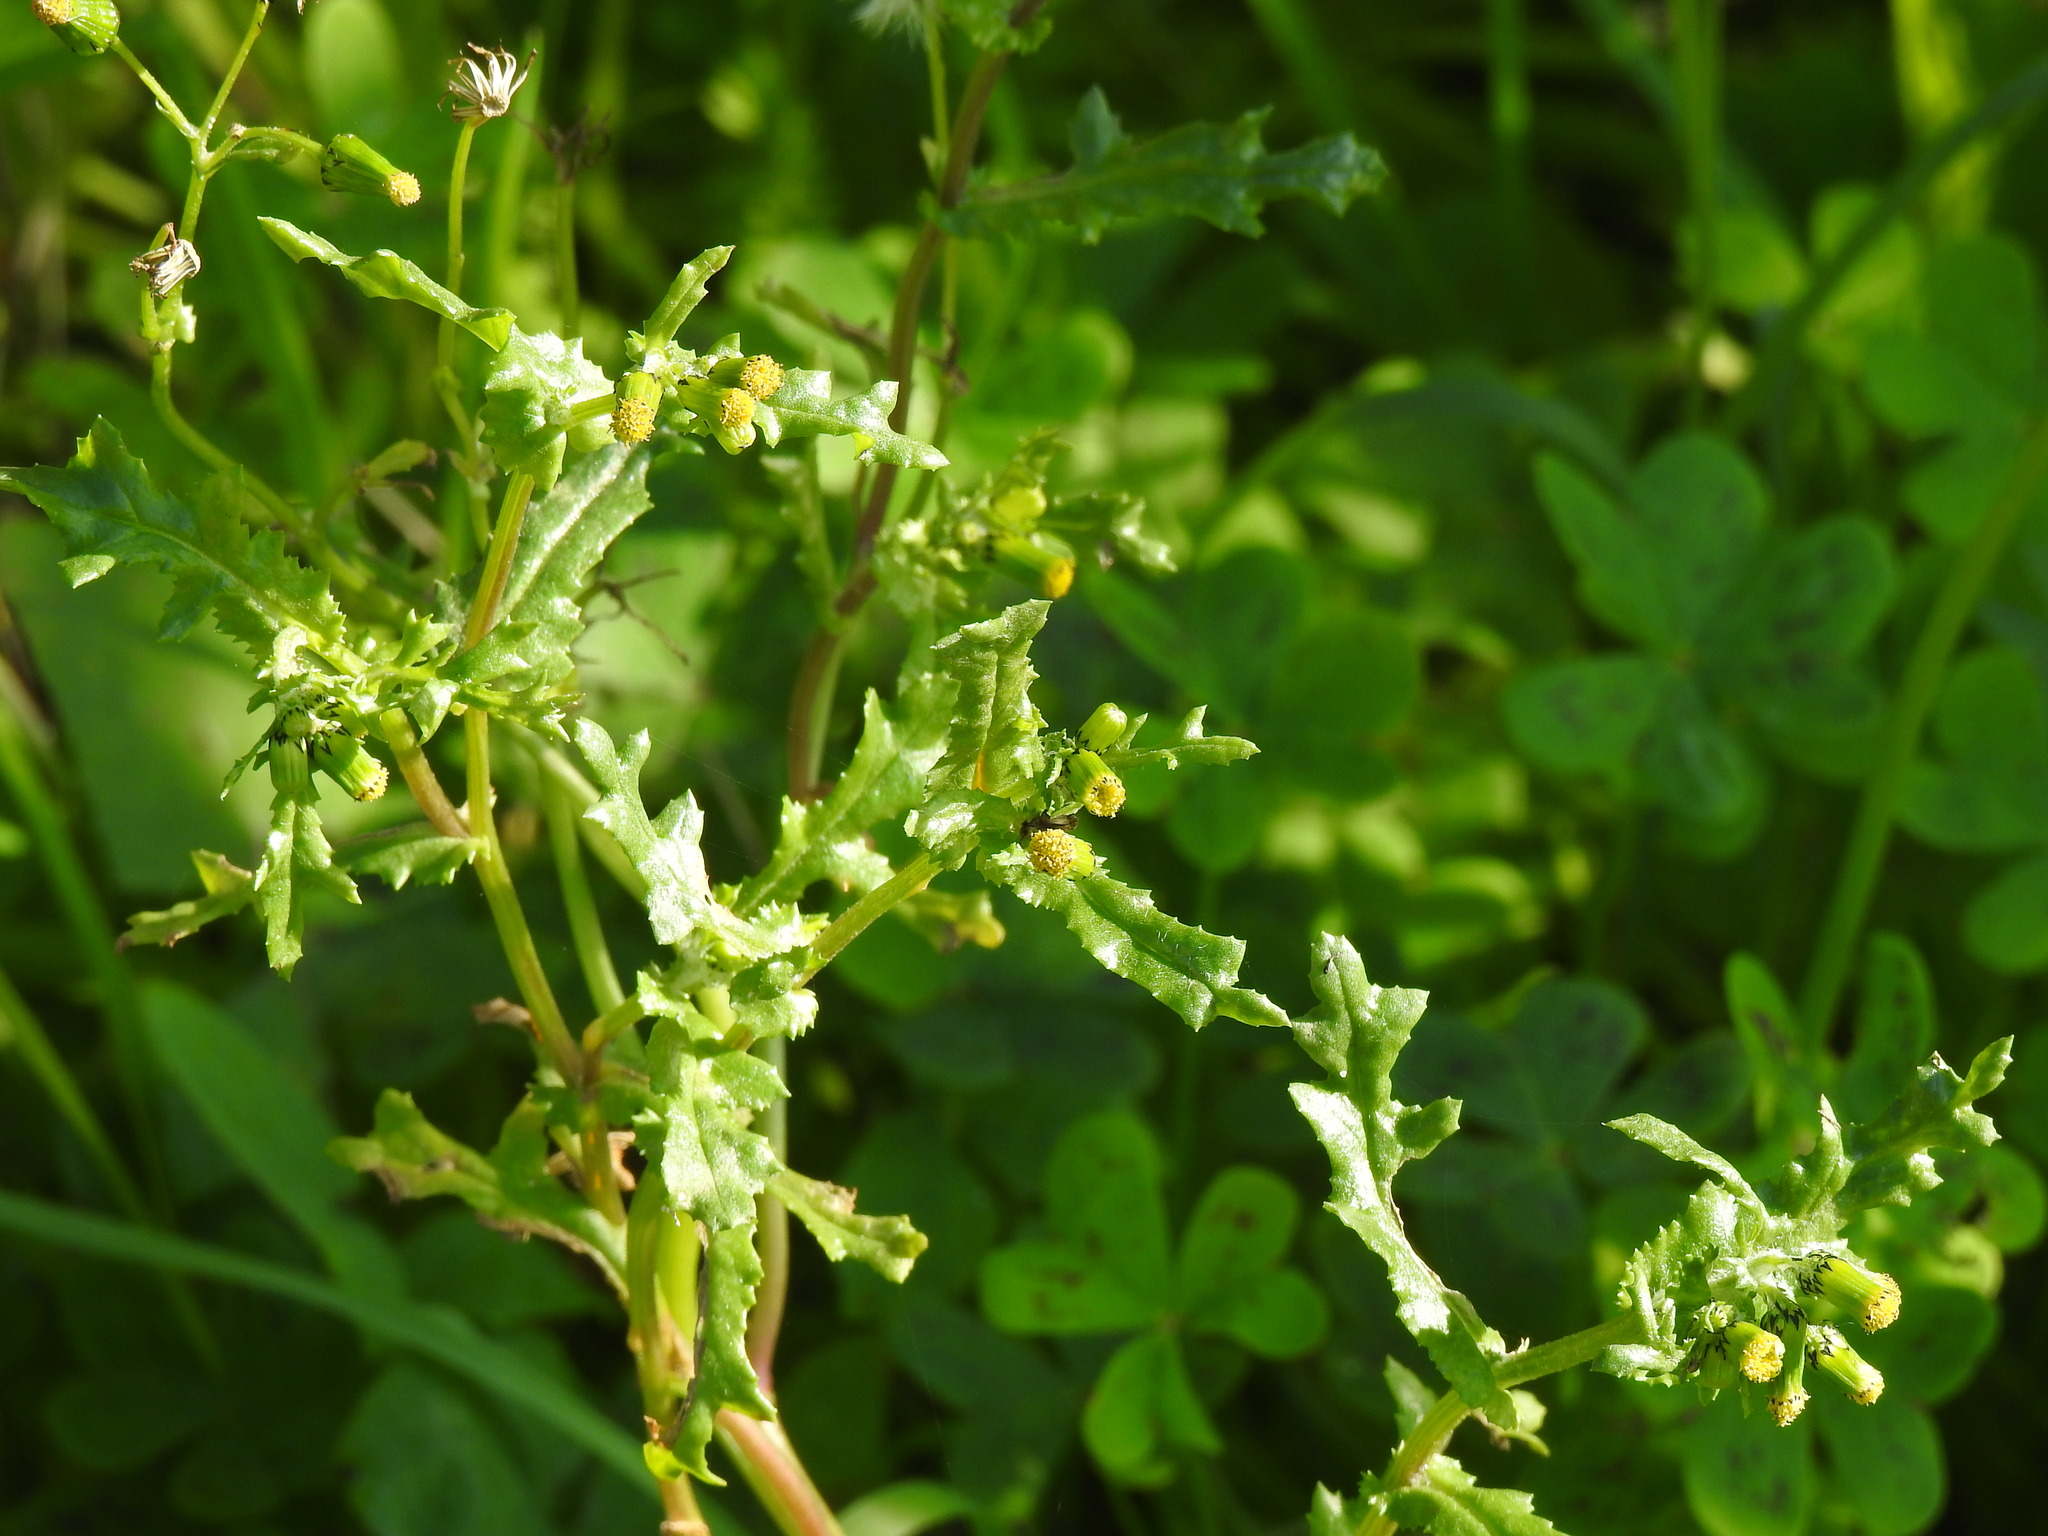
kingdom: Plantae
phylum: Tracheophyta
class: Magnoliopsida
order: Asterales
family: Asteraceae
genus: Senecio
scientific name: Senecio vulgaris
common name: Old-man-in-the-spring
